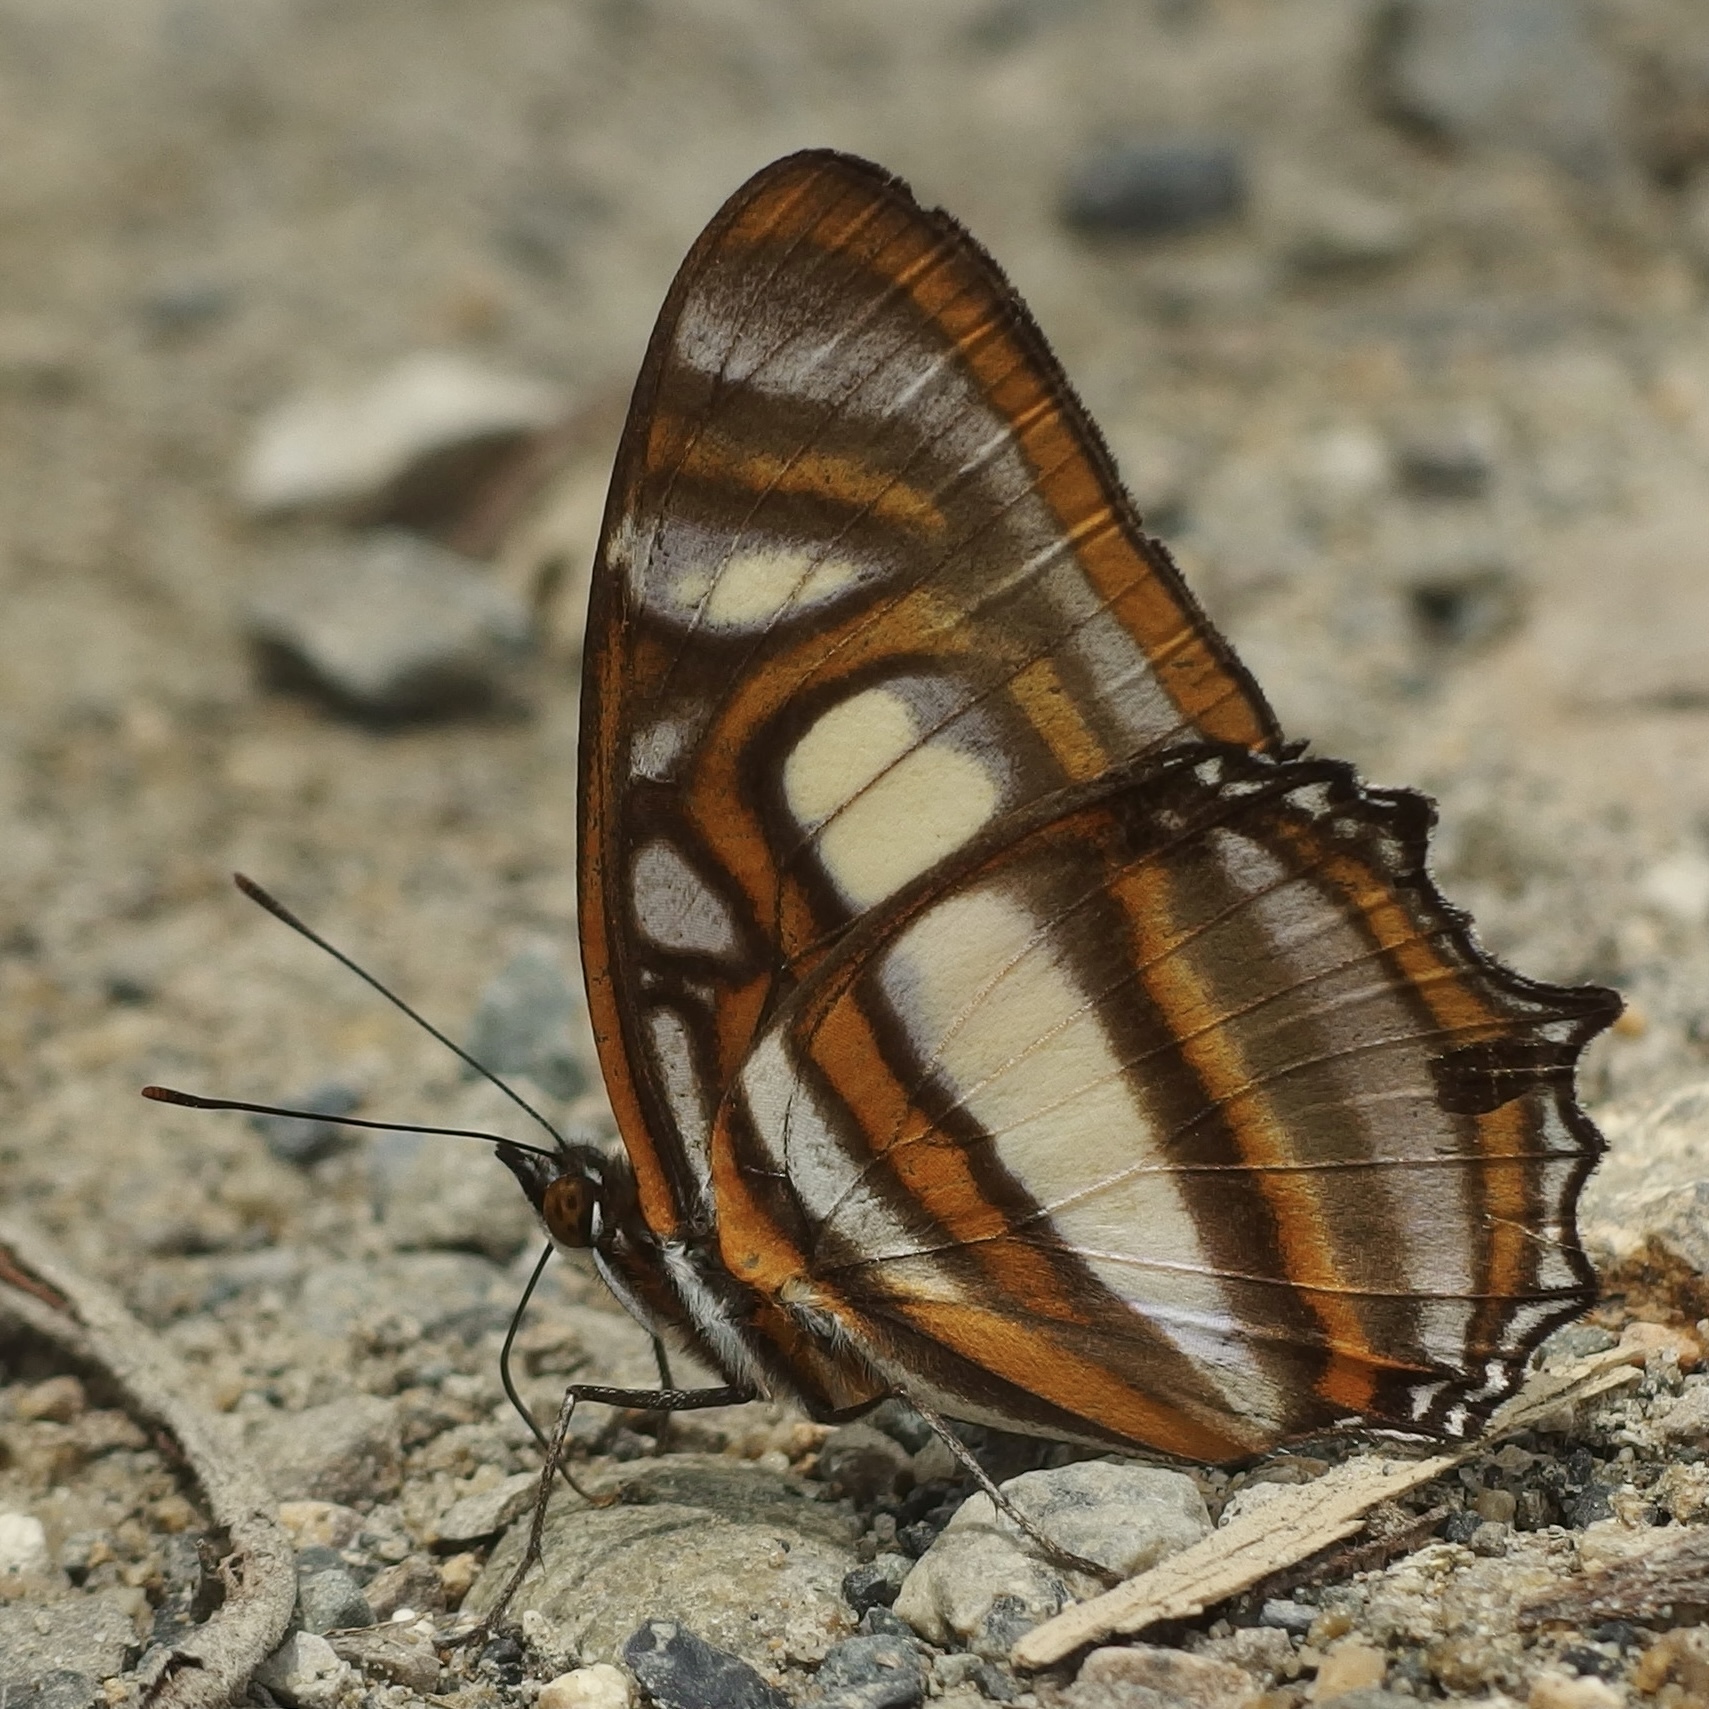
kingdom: Animalia
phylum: Arthropoda
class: Insecta
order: Lepidoptera
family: Nymphalidae
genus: Metamorpha
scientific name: Metamorpha elissa
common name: Elissa page
